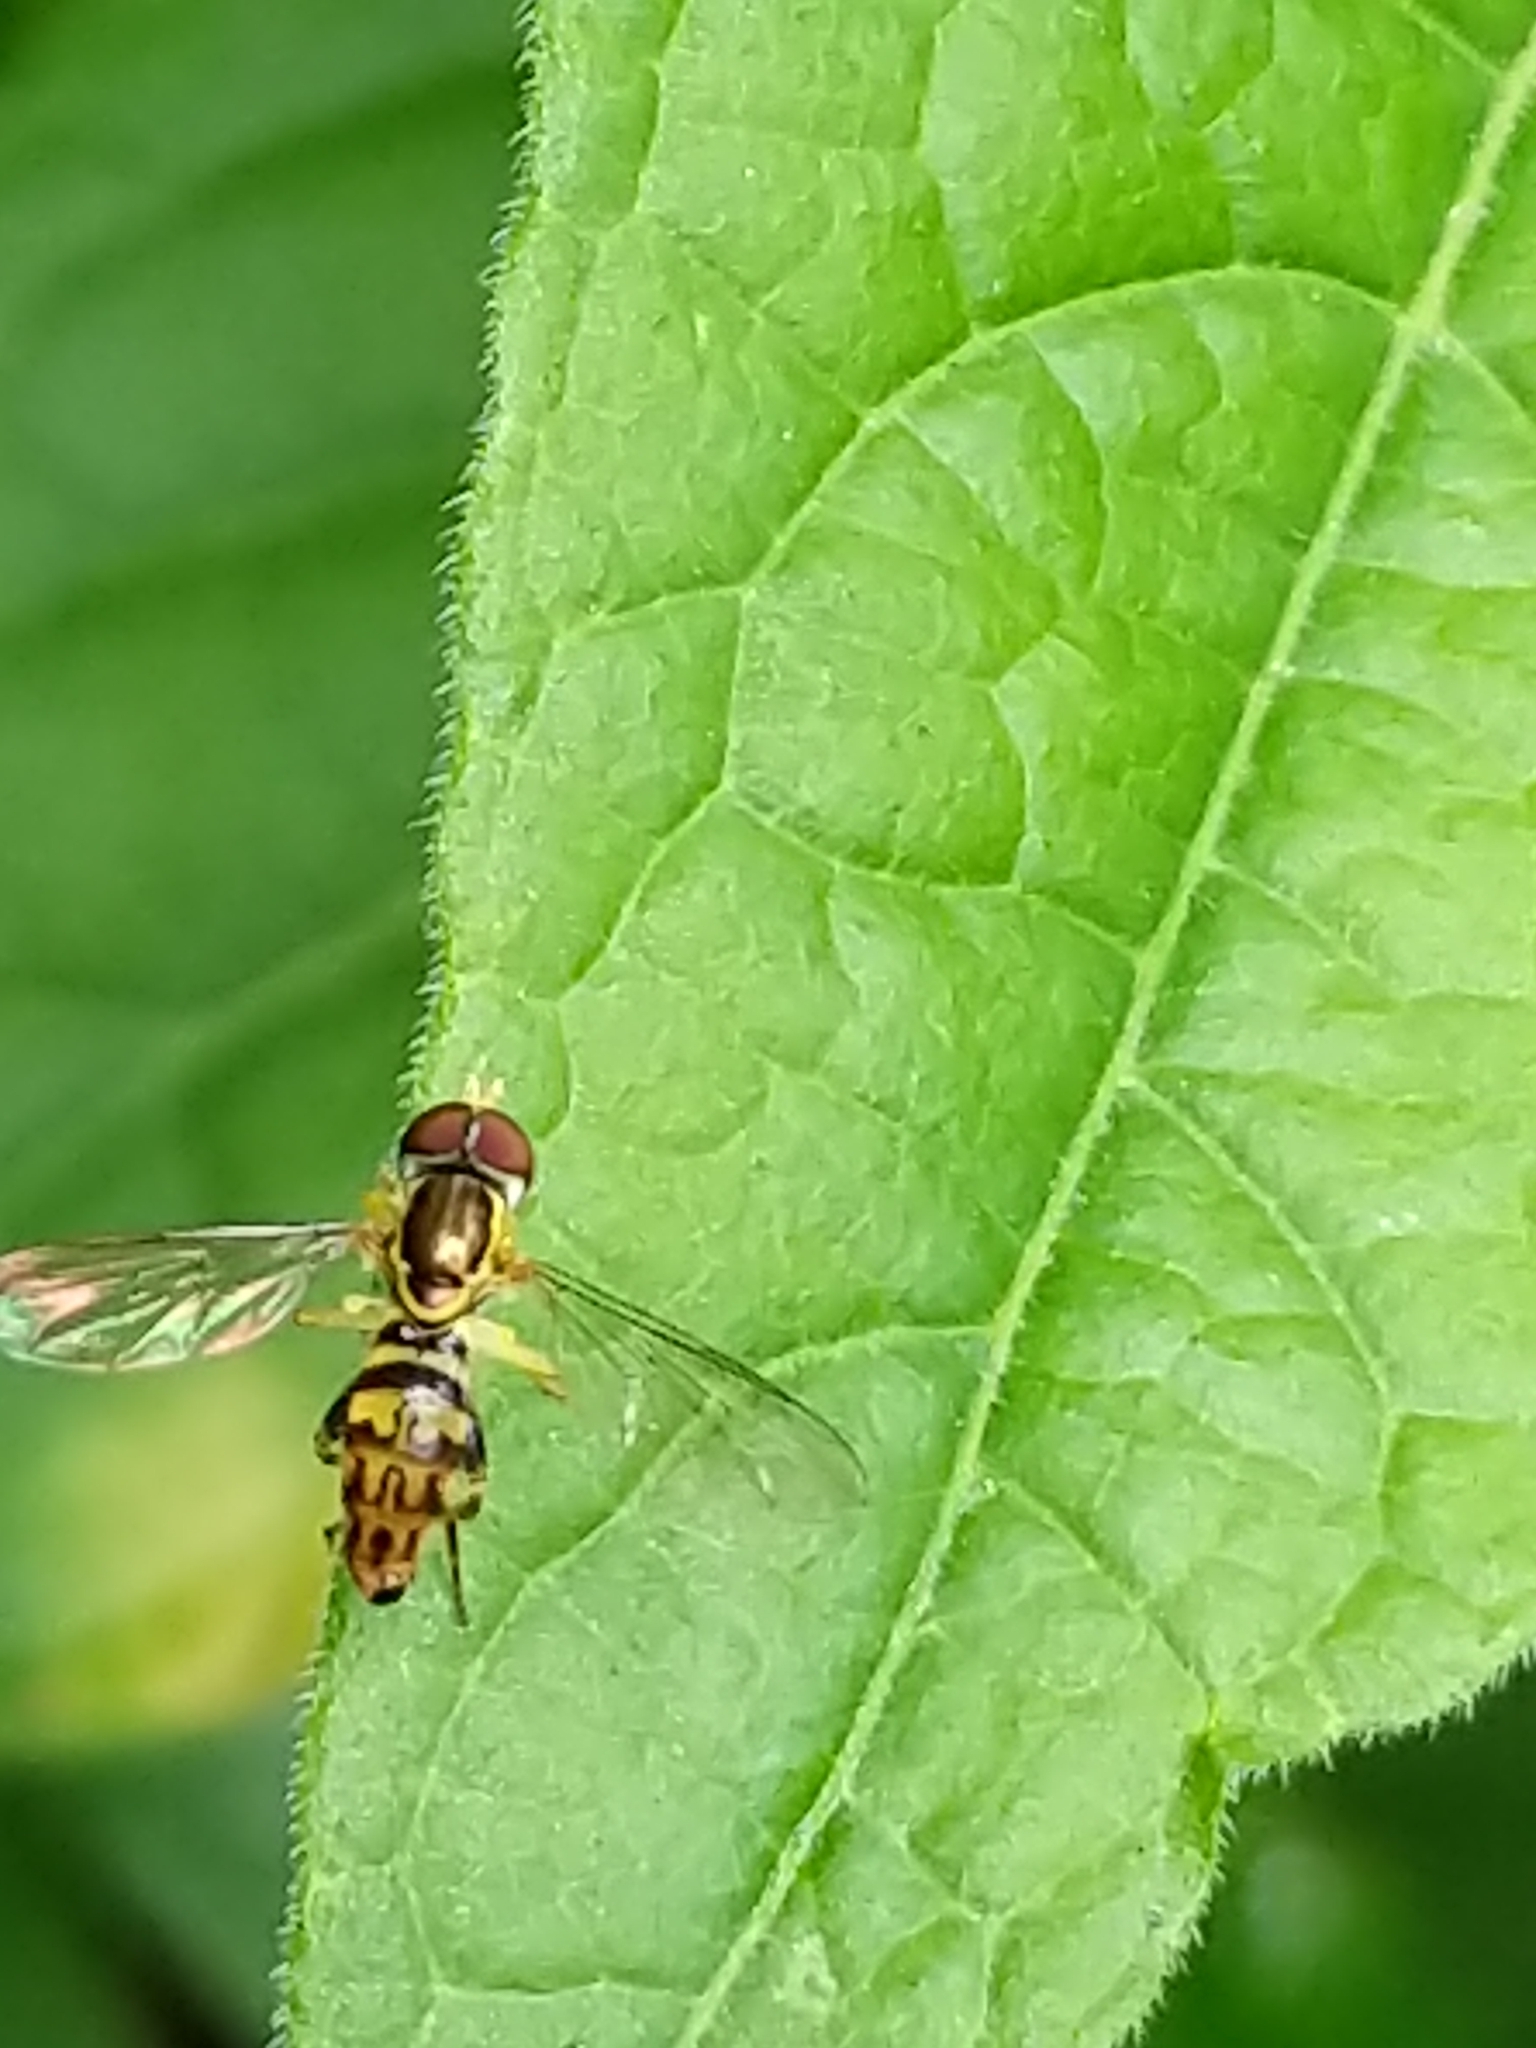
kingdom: Animalia
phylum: Arthropoda
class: Insecta
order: Diptera
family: Syrphidae
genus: Toxomerus
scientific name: Toxomerus geminatus
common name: Eastern calligrapher
